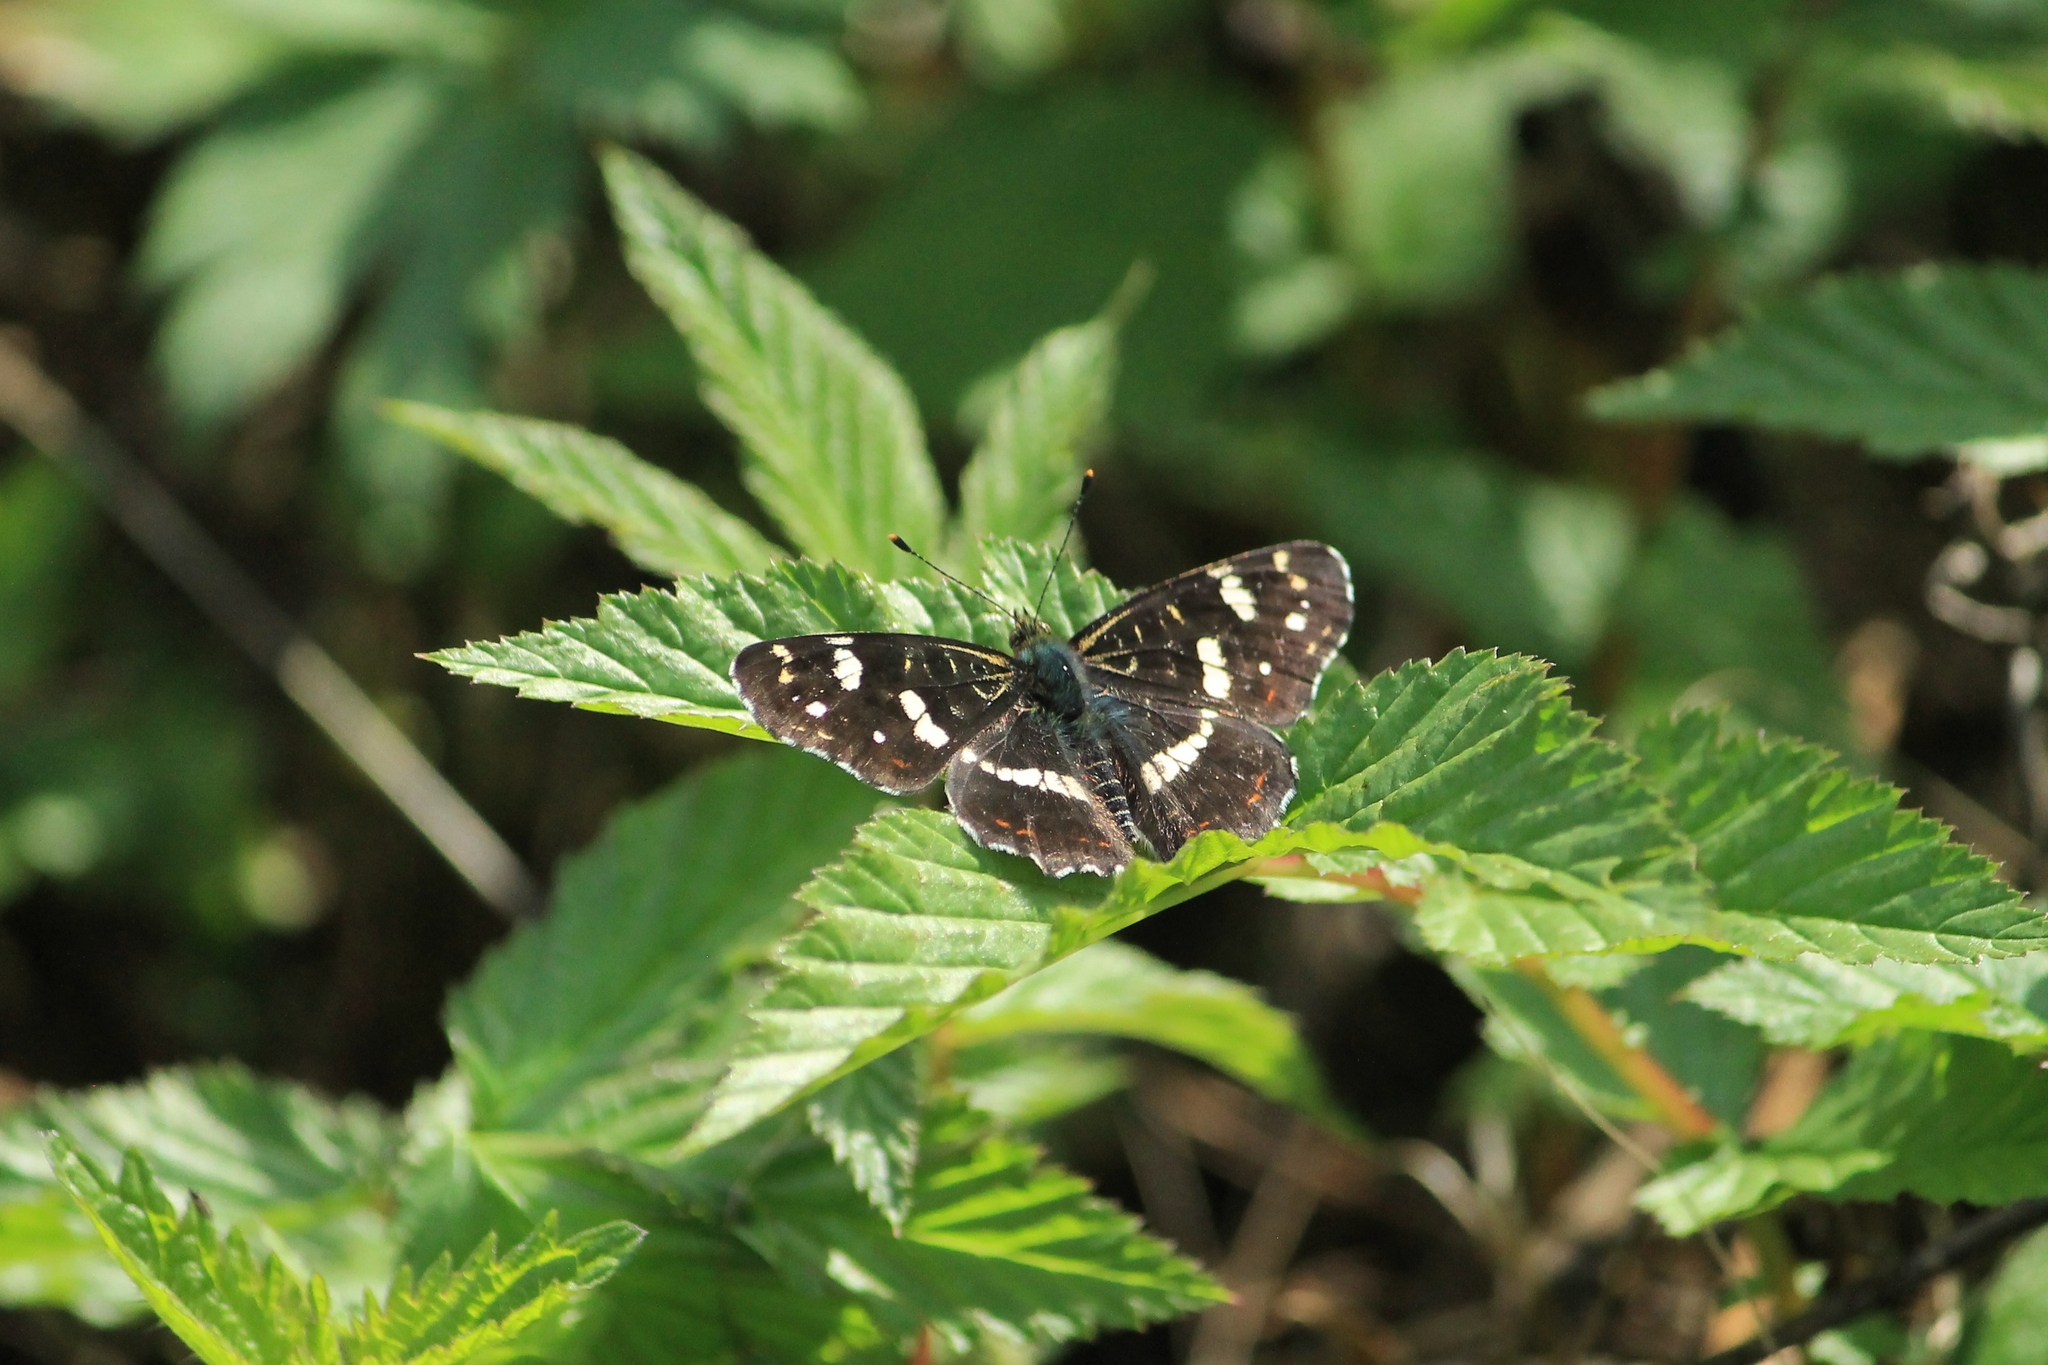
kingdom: Animalia
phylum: Arthropoda
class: Insecta
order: Lepidoptera
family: Nymphalidae
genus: Araschnia
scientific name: Araschnia levana
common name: Map butterfly
